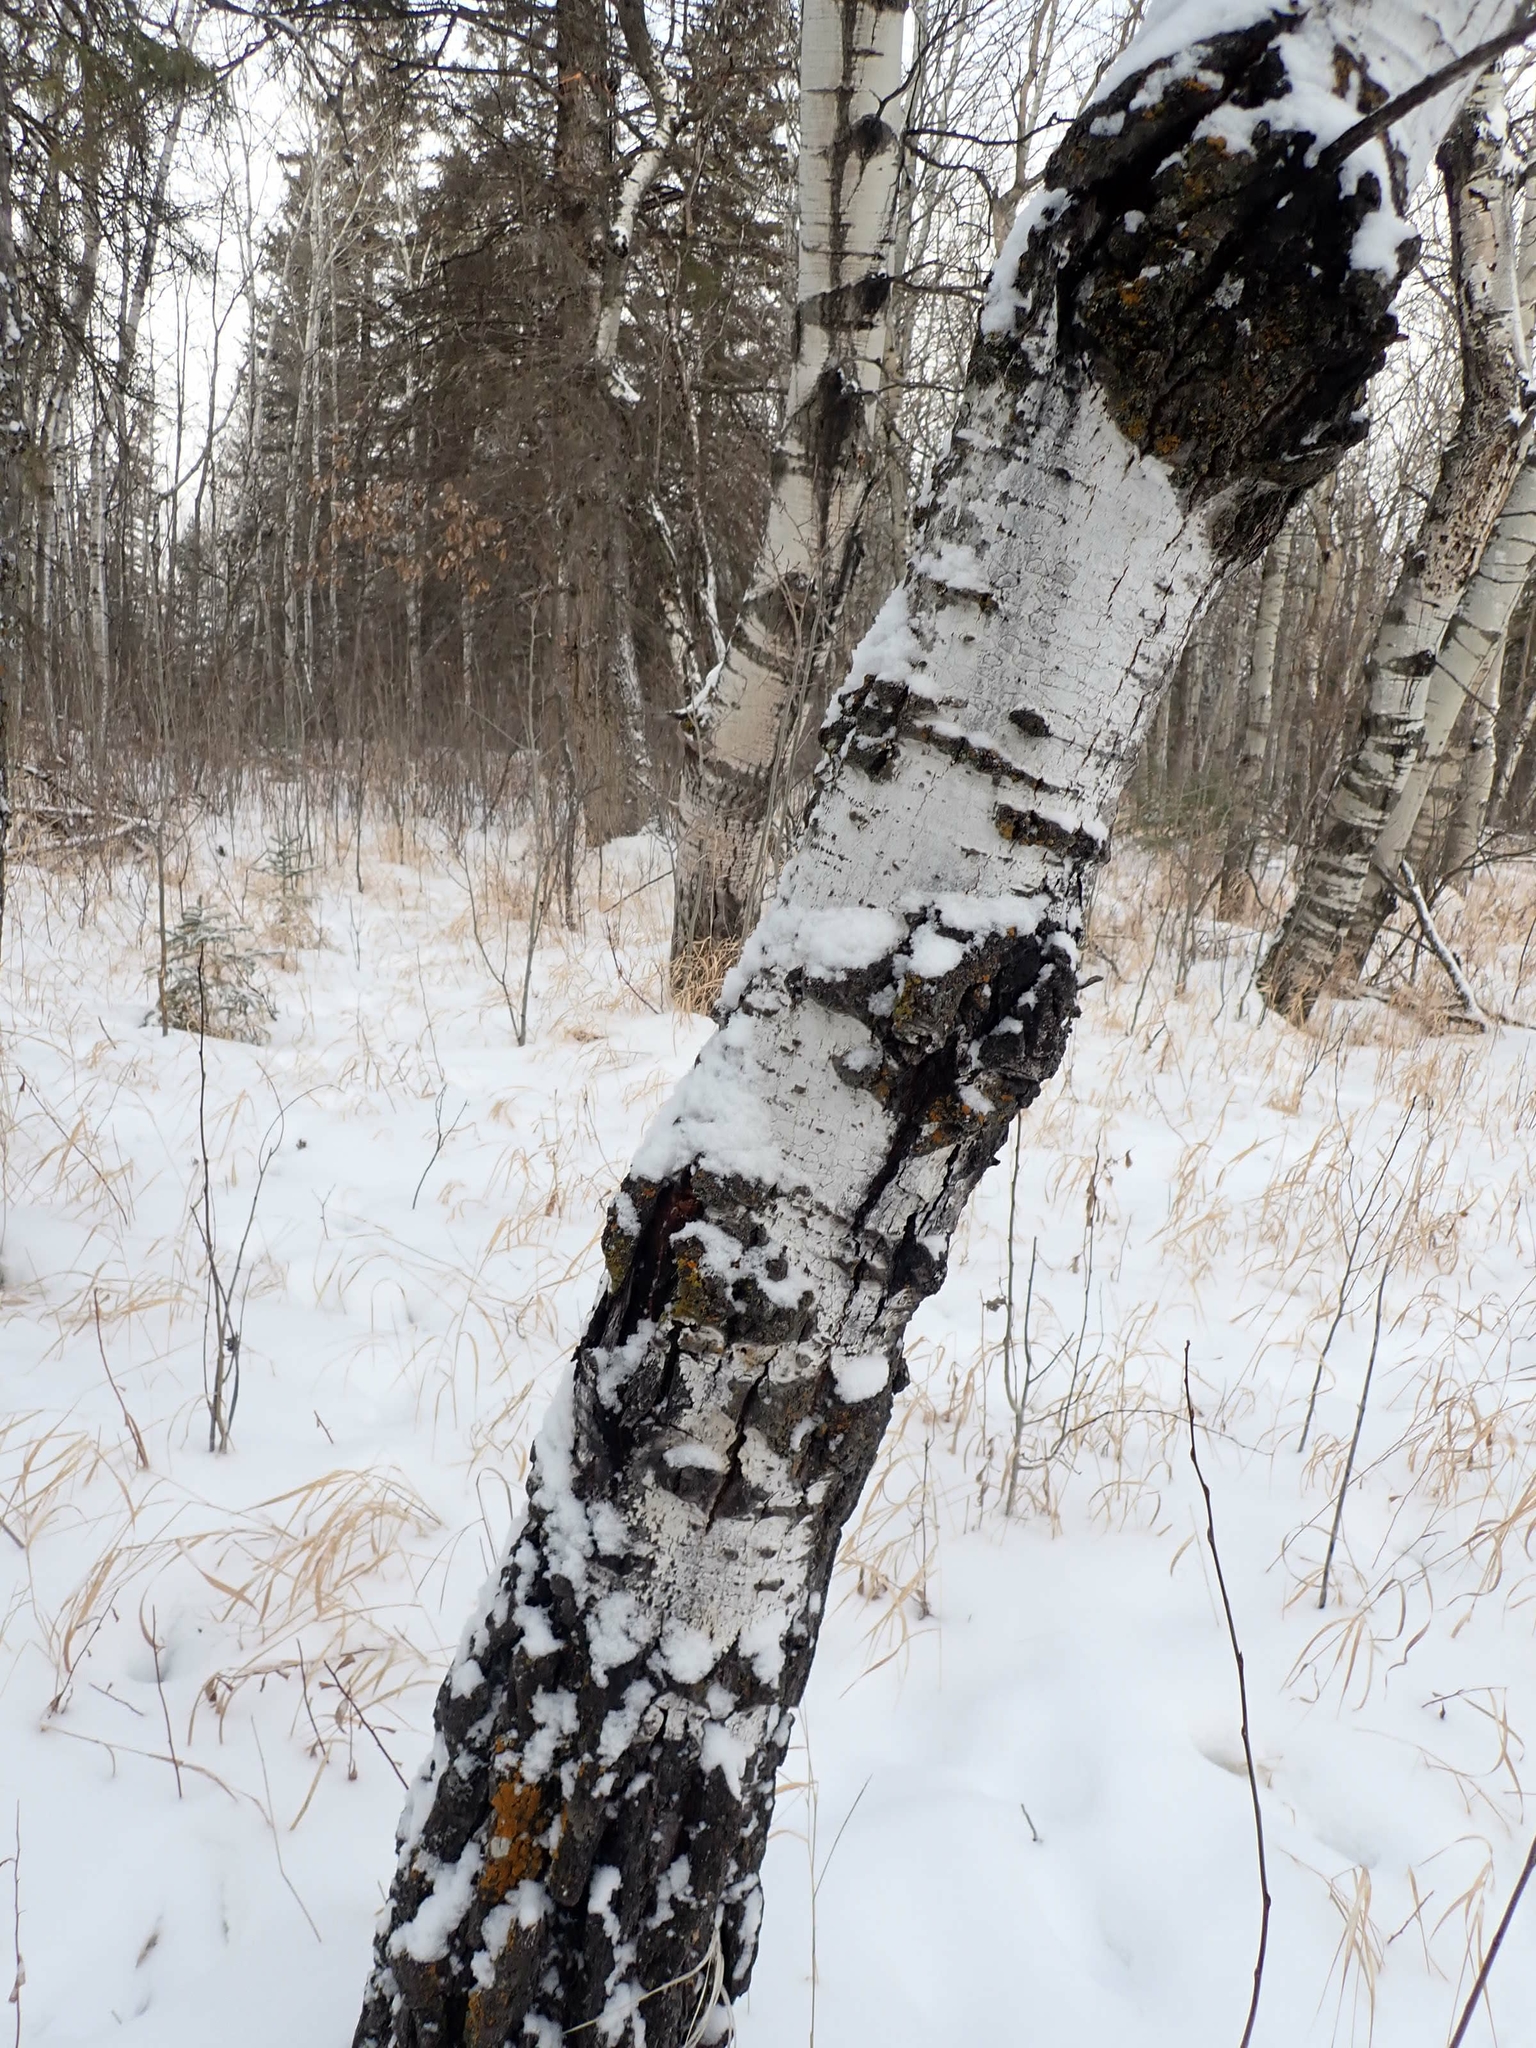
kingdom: Plantae
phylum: Tracheophyta
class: Magnoliopsida
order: Malpighiales
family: Salicaceae
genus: Populus
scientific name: Populus tremuloides
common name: Quaking aspen
